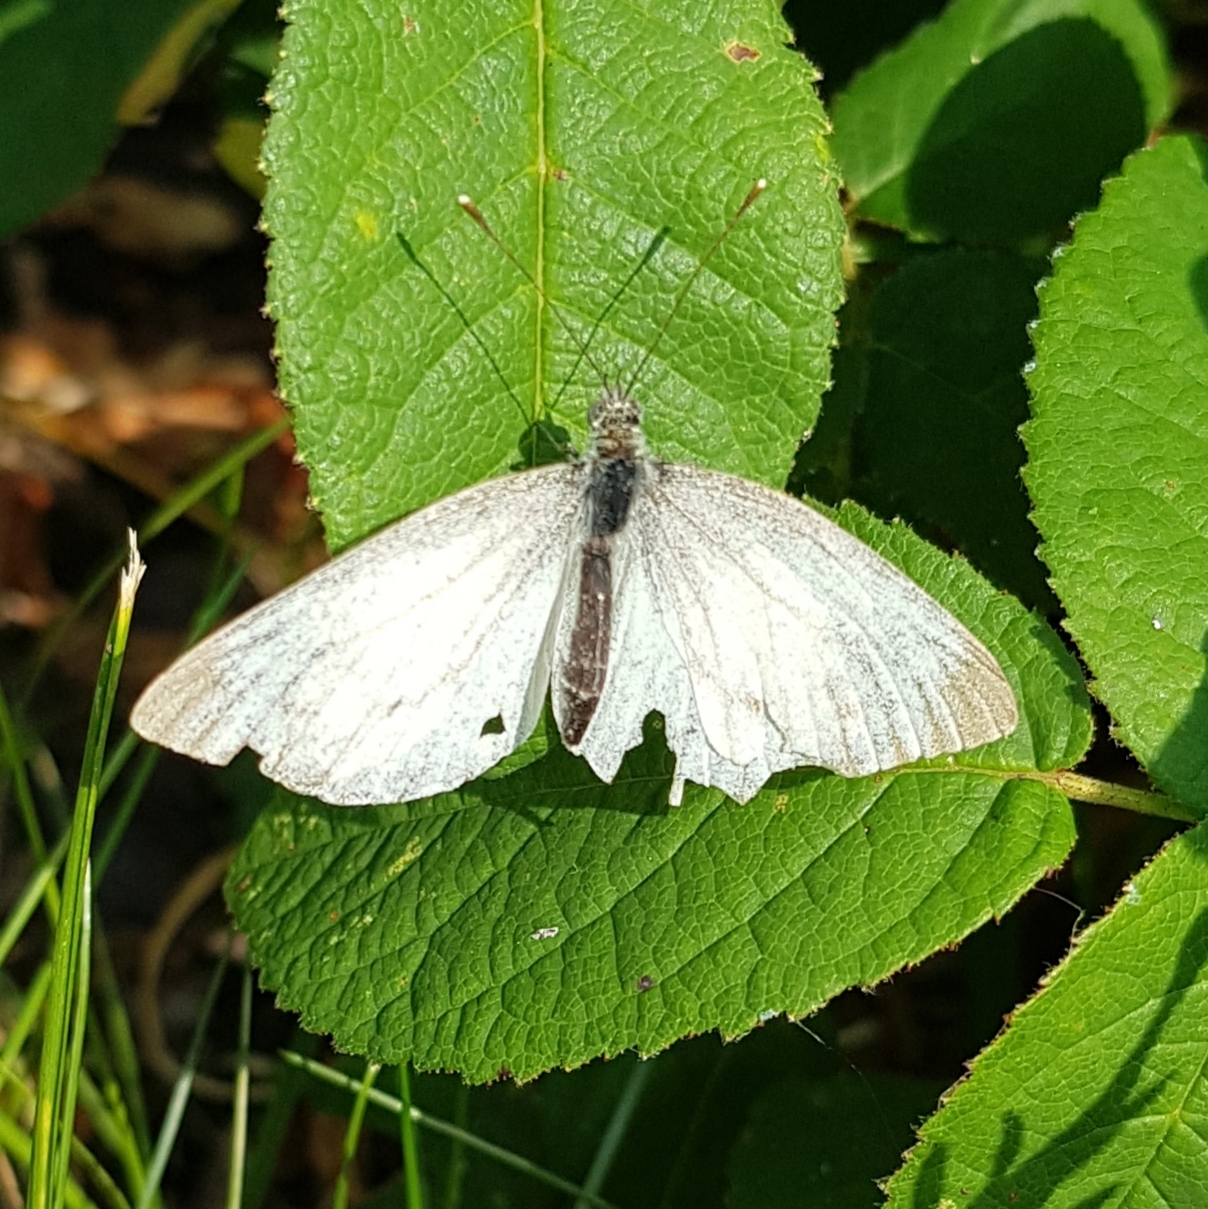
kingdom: Animalia
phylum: Arthropoda
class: Insecta
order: Lepidoptera
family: Pieridae
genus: Pieris
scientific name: Pieris napi
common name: Green-veined white
